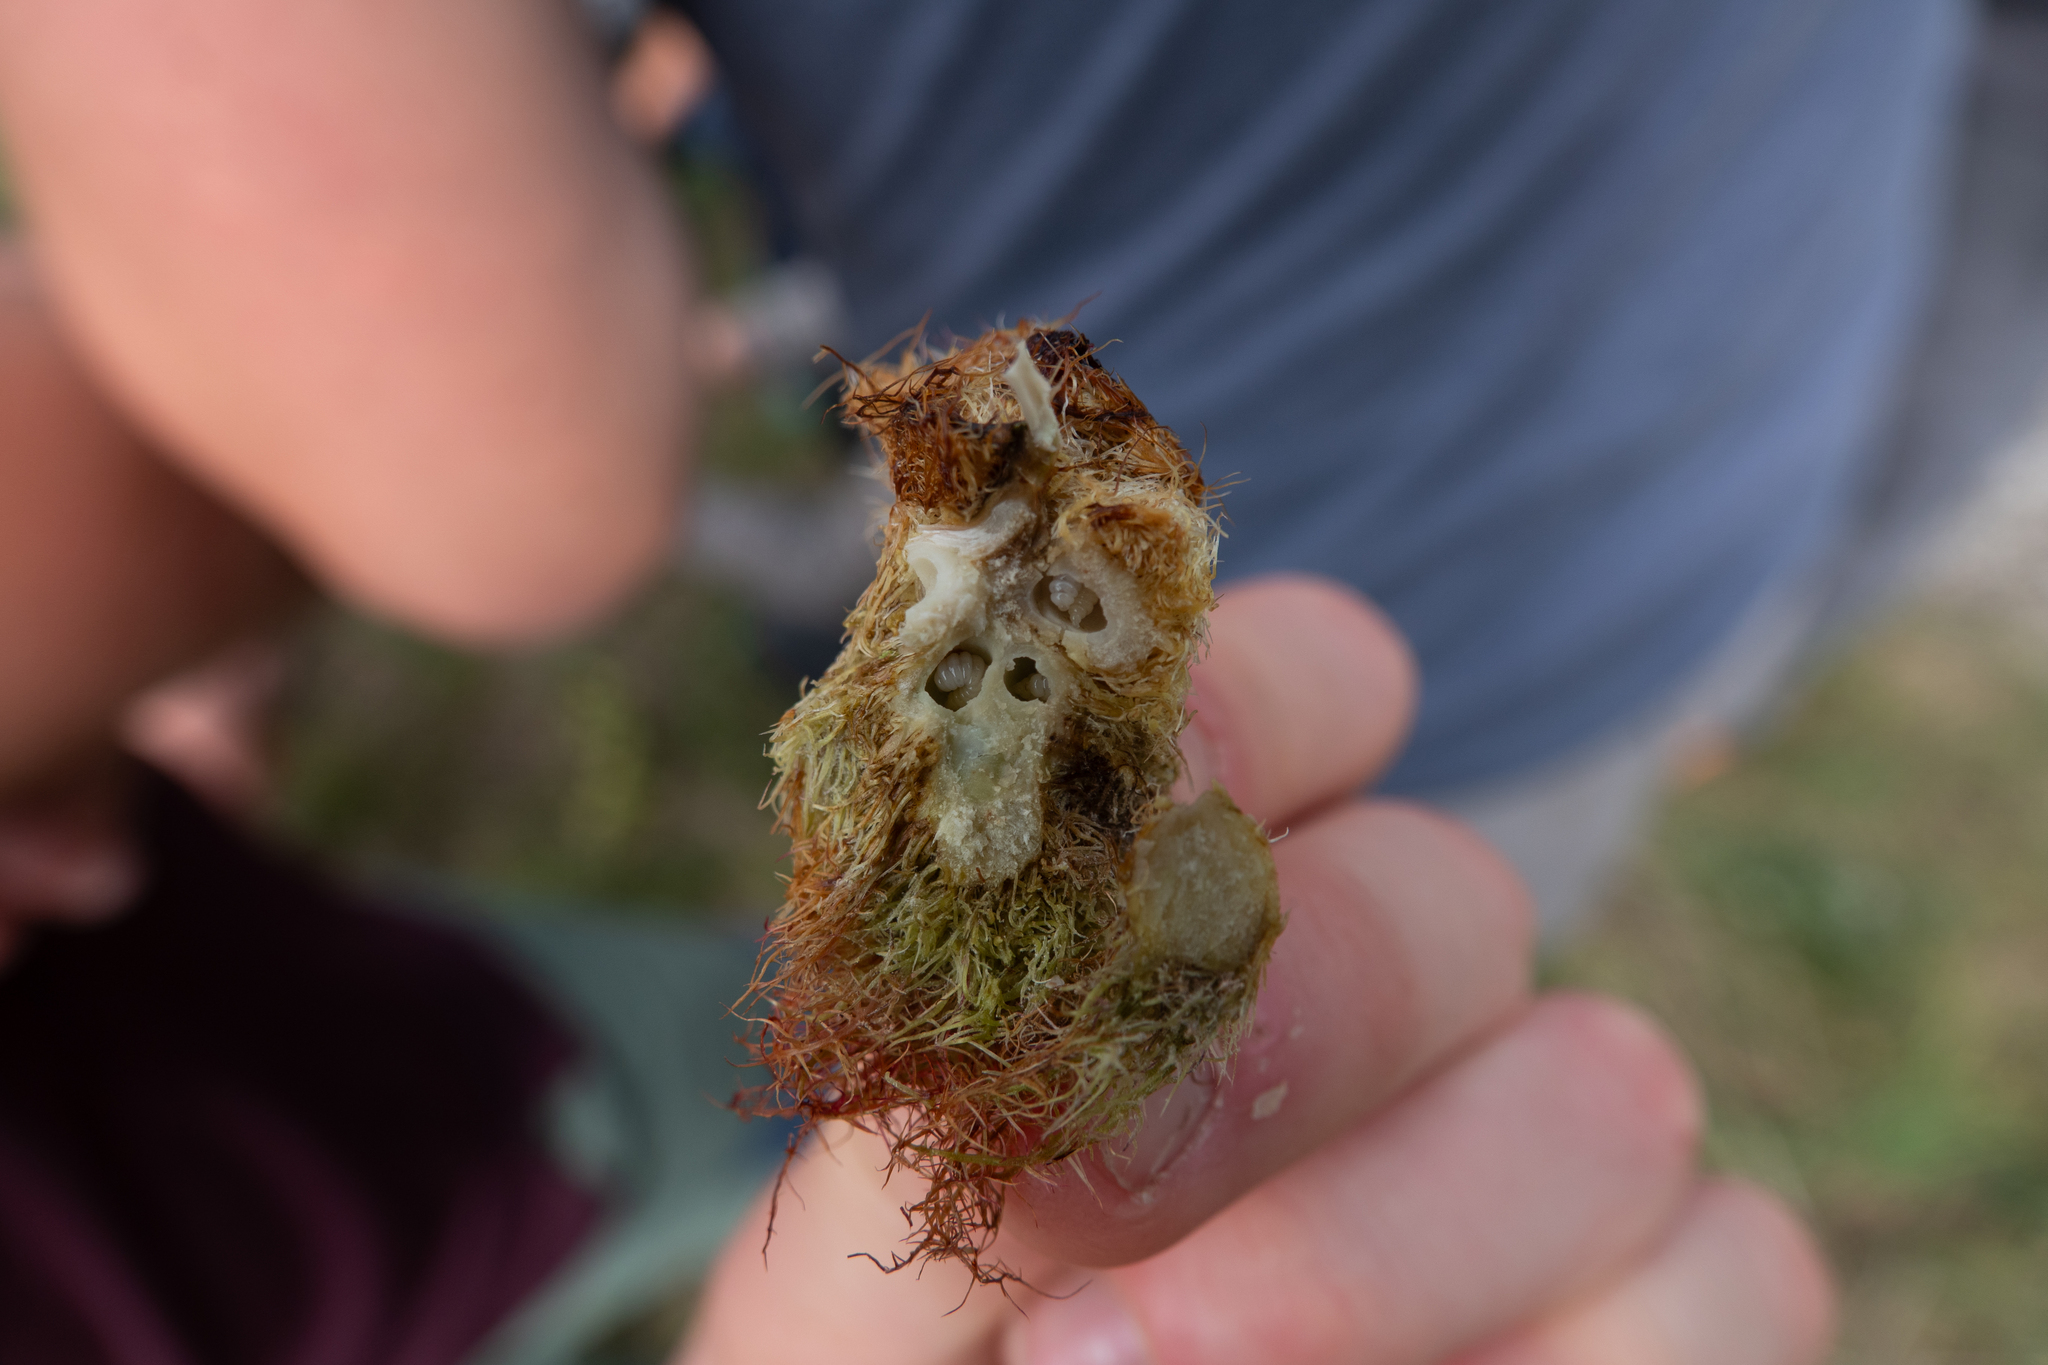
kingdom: Animalia
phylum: Arthropoda
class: Insecta
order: Hymenoptera
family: Cynipidae
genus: Diplolepis
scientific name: Diplolepis rosae
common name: Bedeguar gall
